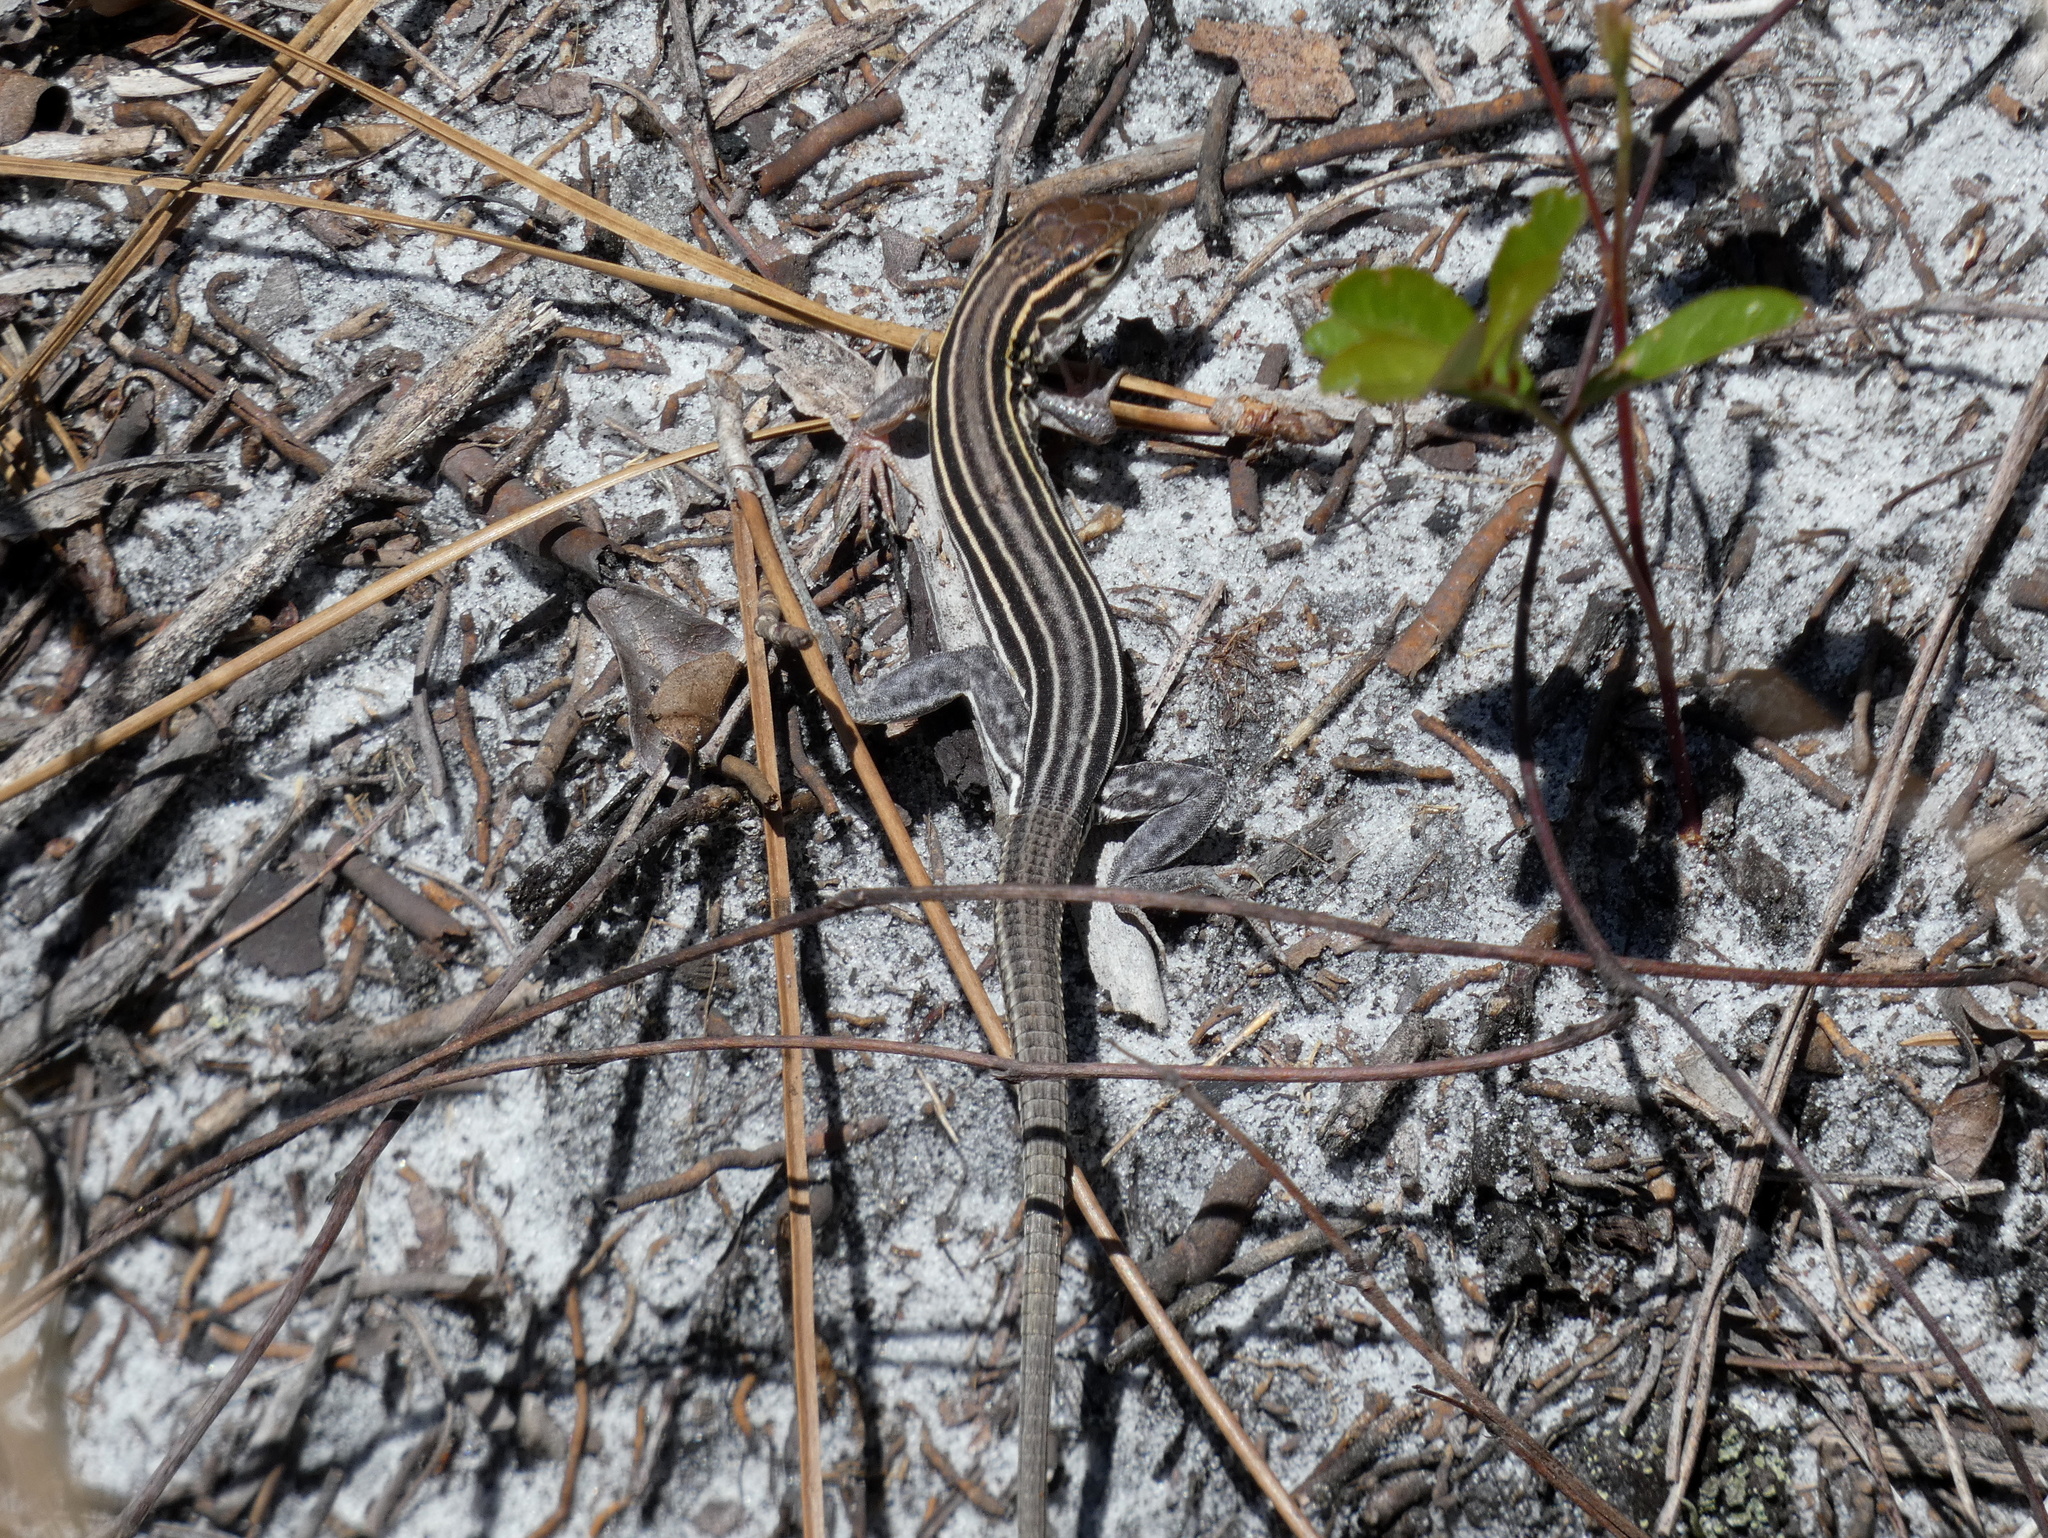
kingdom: Animalia
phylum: Chordata
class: Squamata
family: Teiidae
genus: Aspidoscelis
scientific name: Aspidoscelis sexlineatus
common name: Six-lined racerunner
